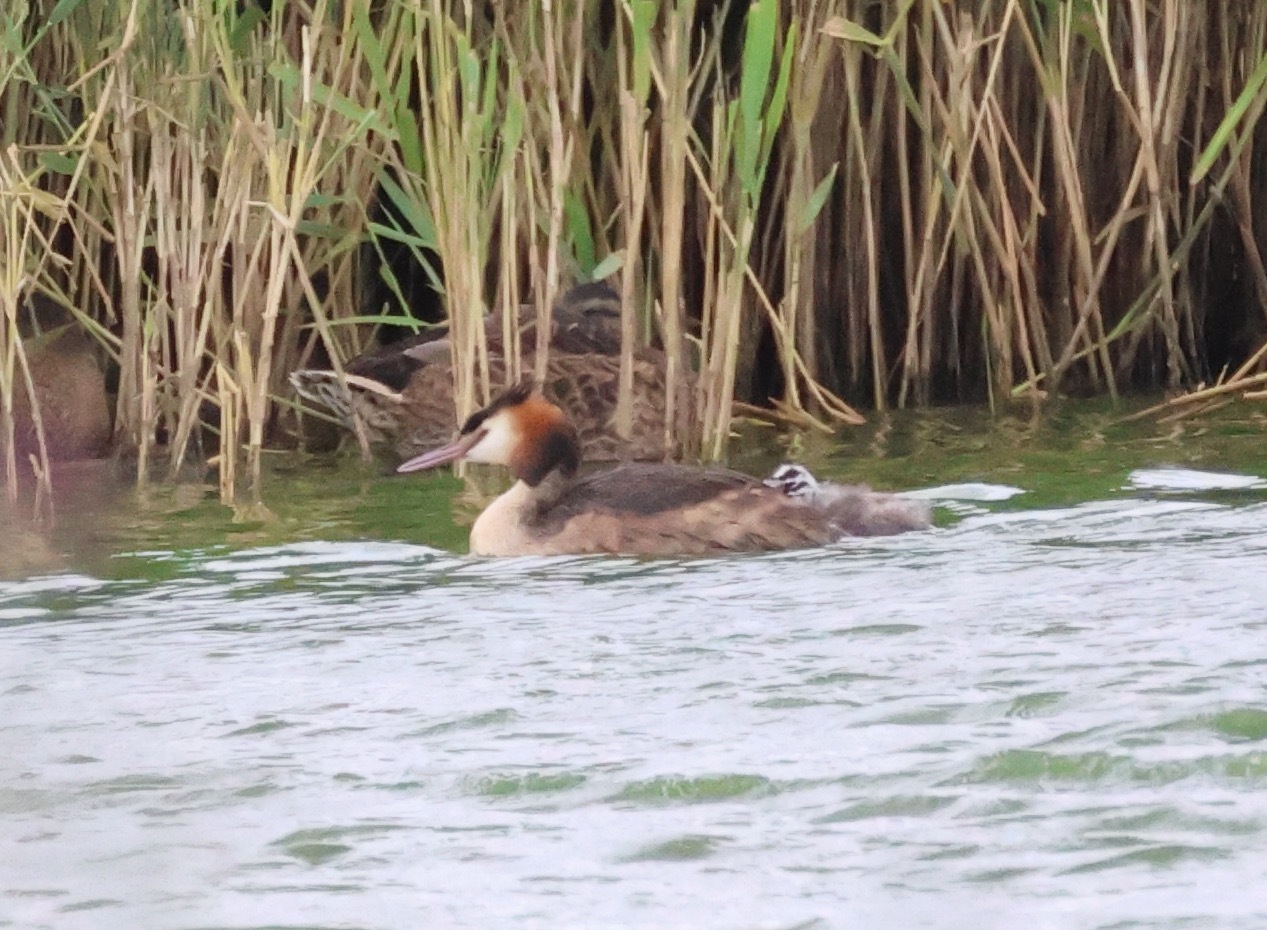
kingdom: Animalia
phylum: Chordata
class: Aves
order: Podicipediformes
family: Podicipedidae
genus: Podiceps
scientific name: Podiceps cristatus
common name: Great crested grebe
